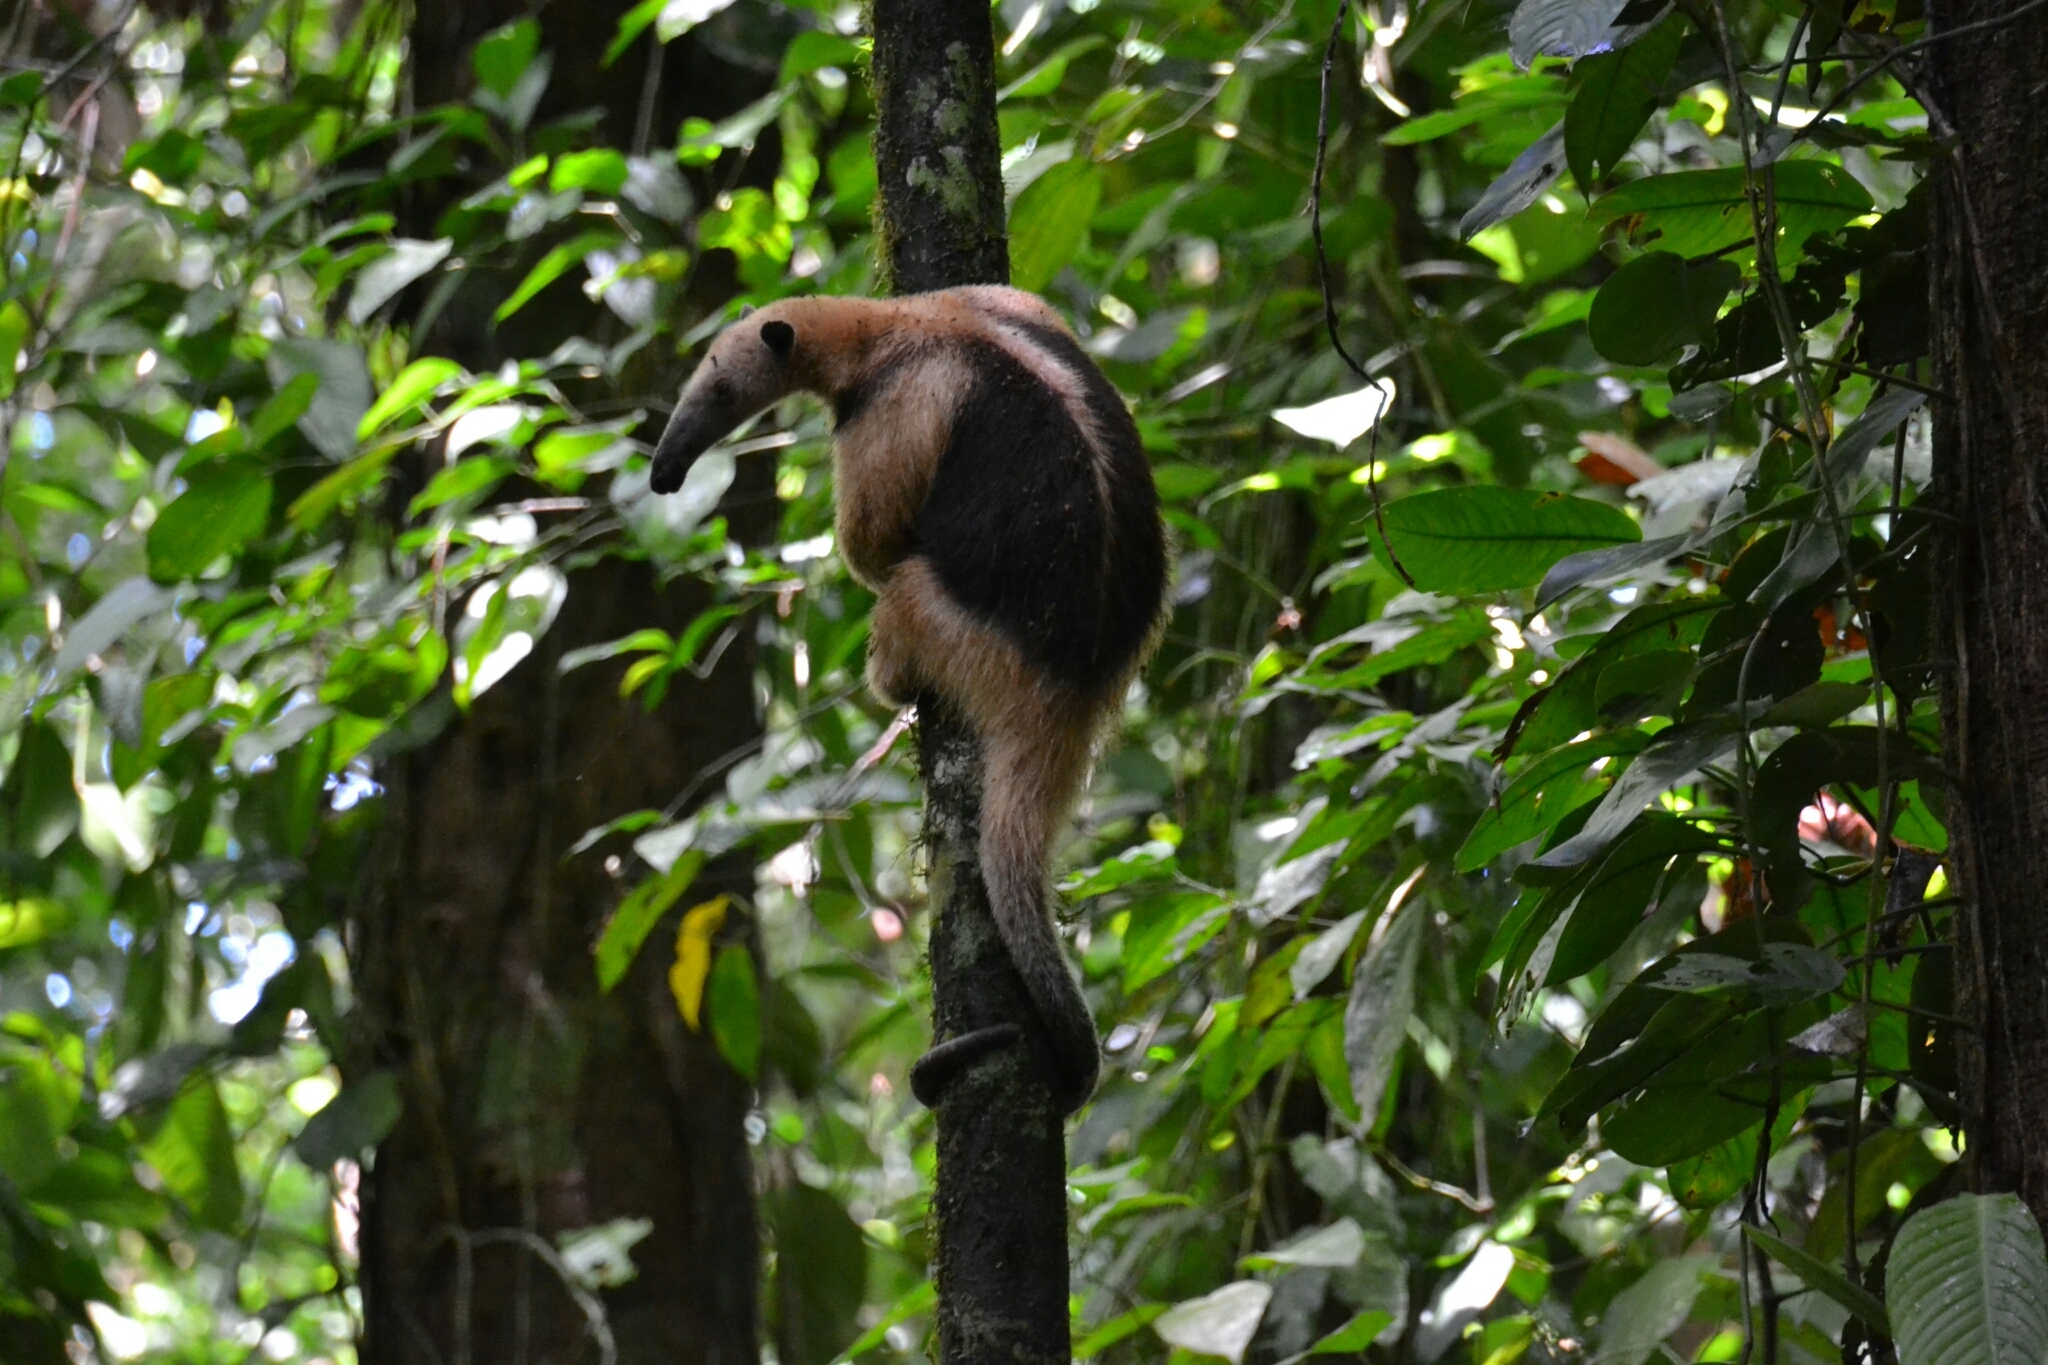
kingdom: Animalia
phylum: Chordata
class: Mammalia
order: Pilosa
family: Myrmecophagidae
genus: Tamandua
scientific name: Tamandua mexicana
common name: Northern tamandua
